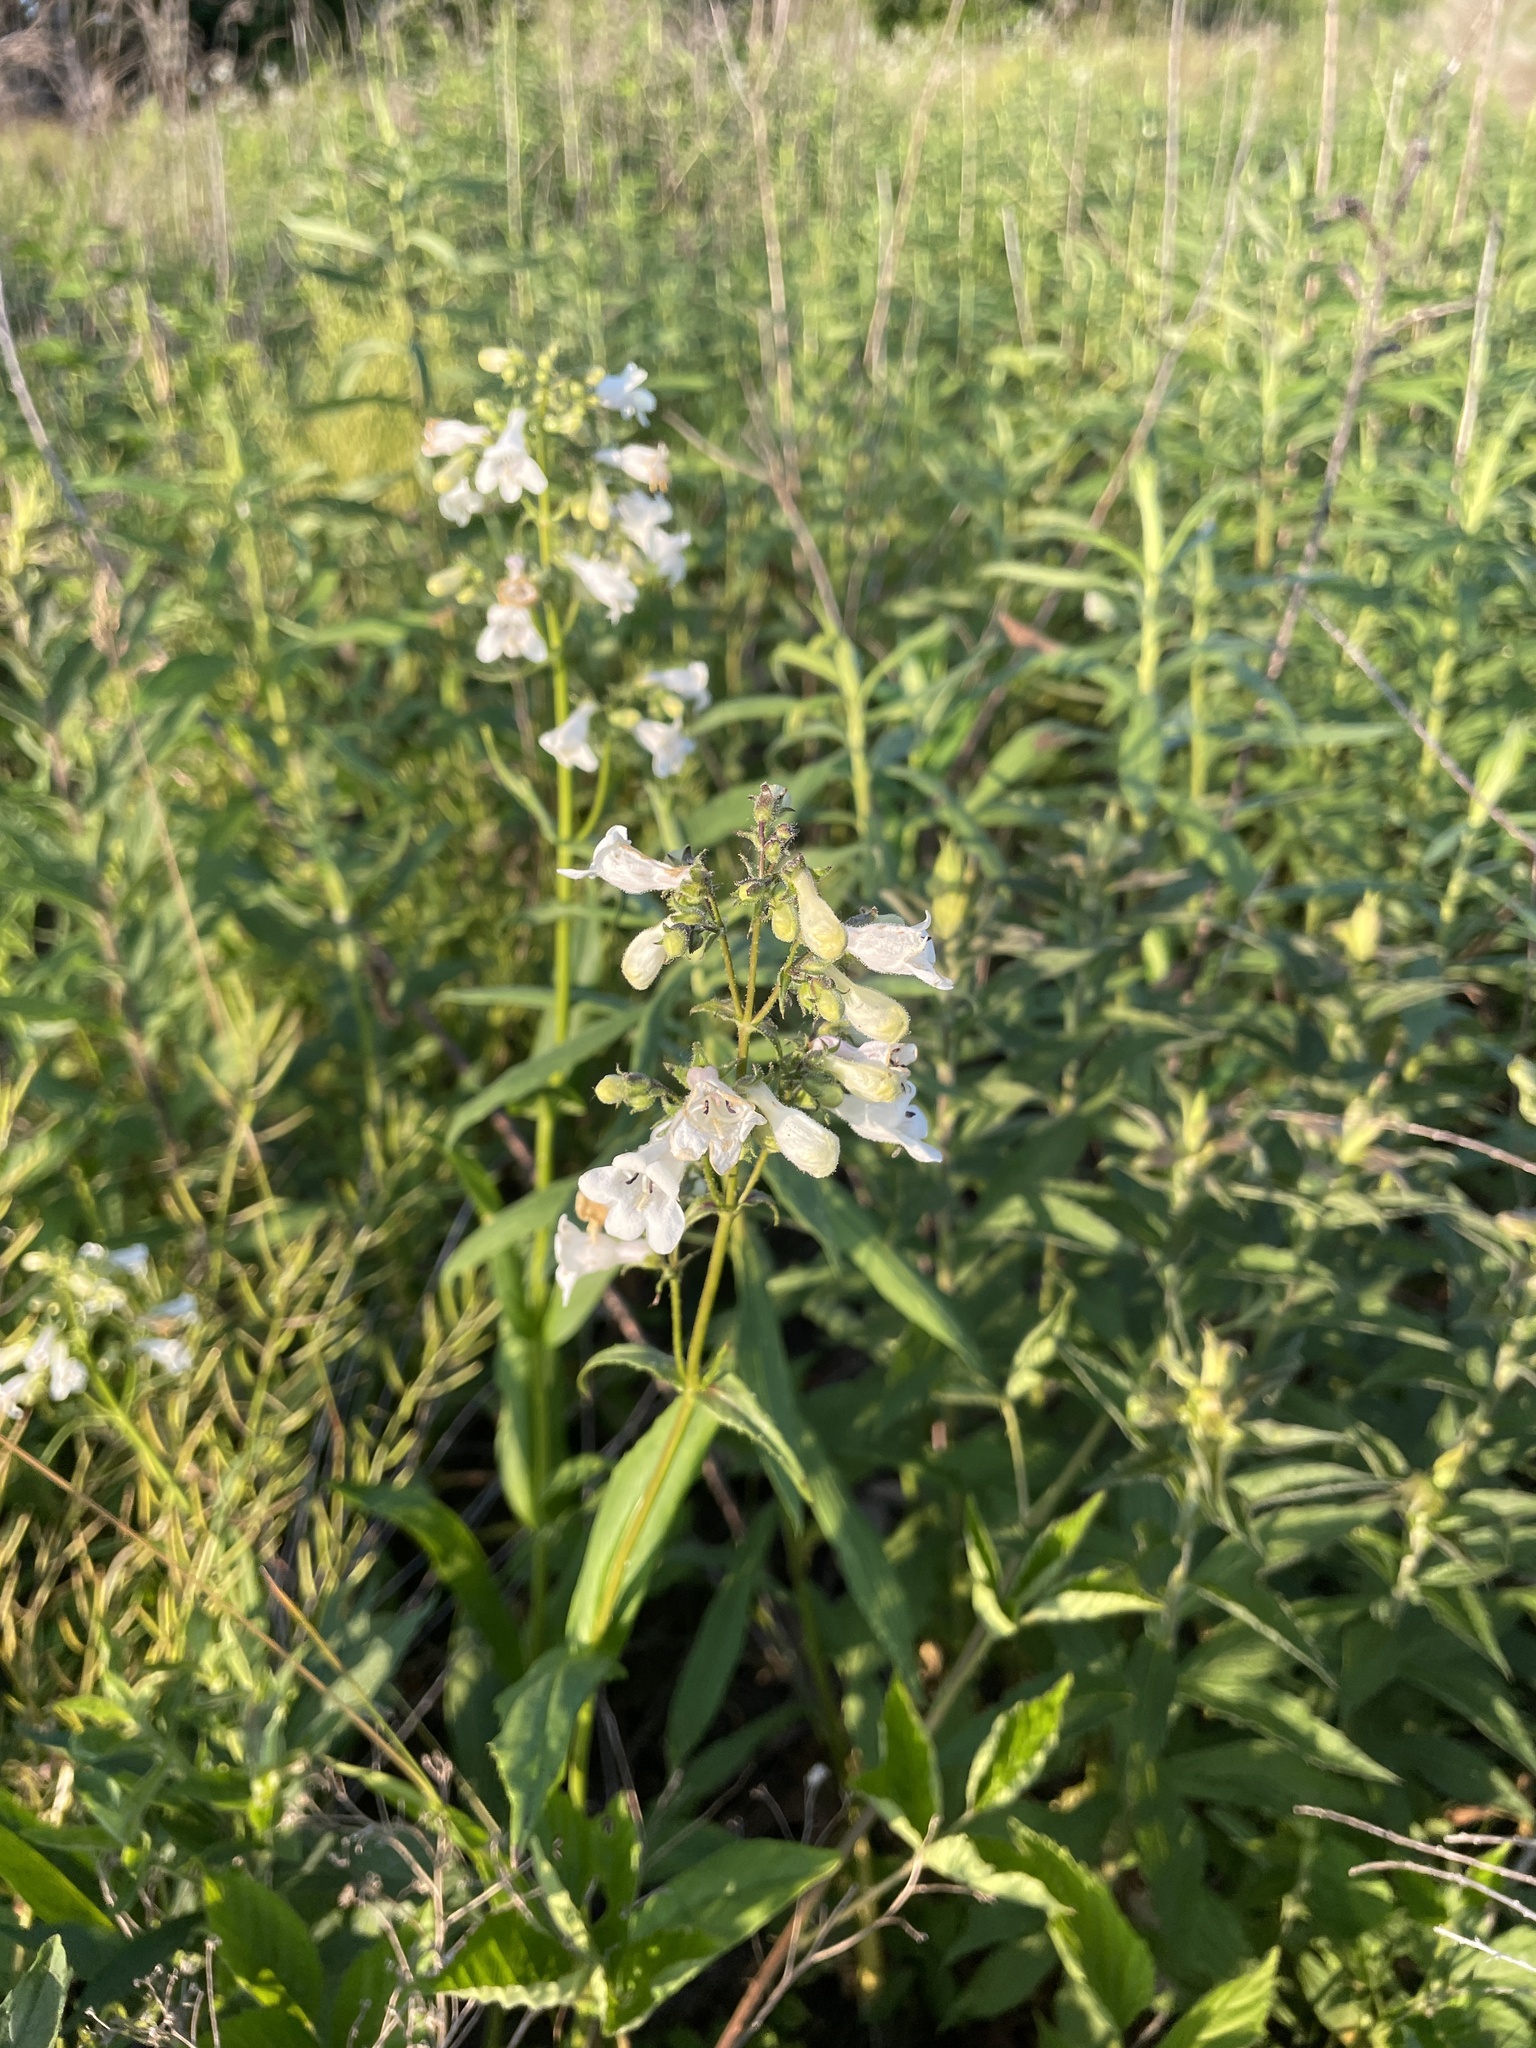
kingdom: Plantae
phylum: Tracheophyta
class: Magnoliopsida
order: Lamiales
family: Plantaginaceae
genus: Penstemon
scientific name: Penstemon digitalis
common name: Foxglove beardtongue
